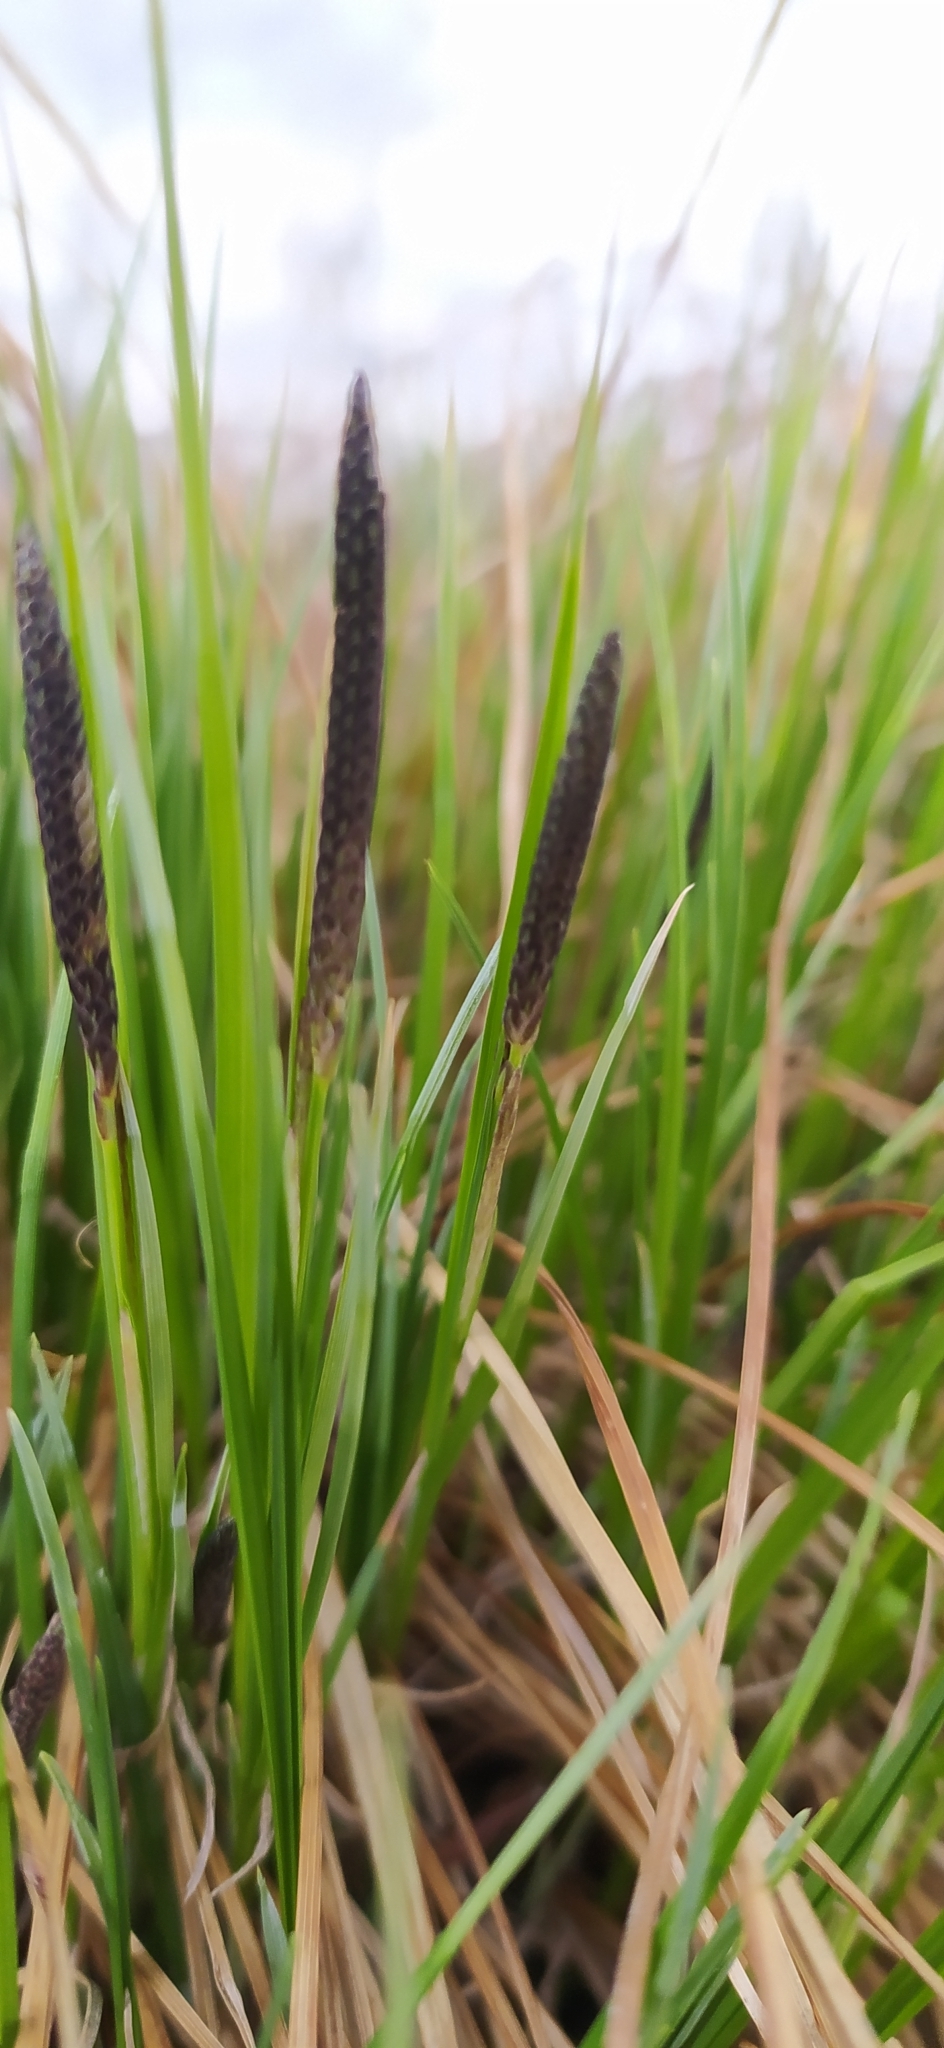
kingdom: Plantae
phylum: Tracheophyta
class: Liliopsida
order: Poales
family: Cyperaceae
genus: Carex
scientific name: Carex cespitosa
